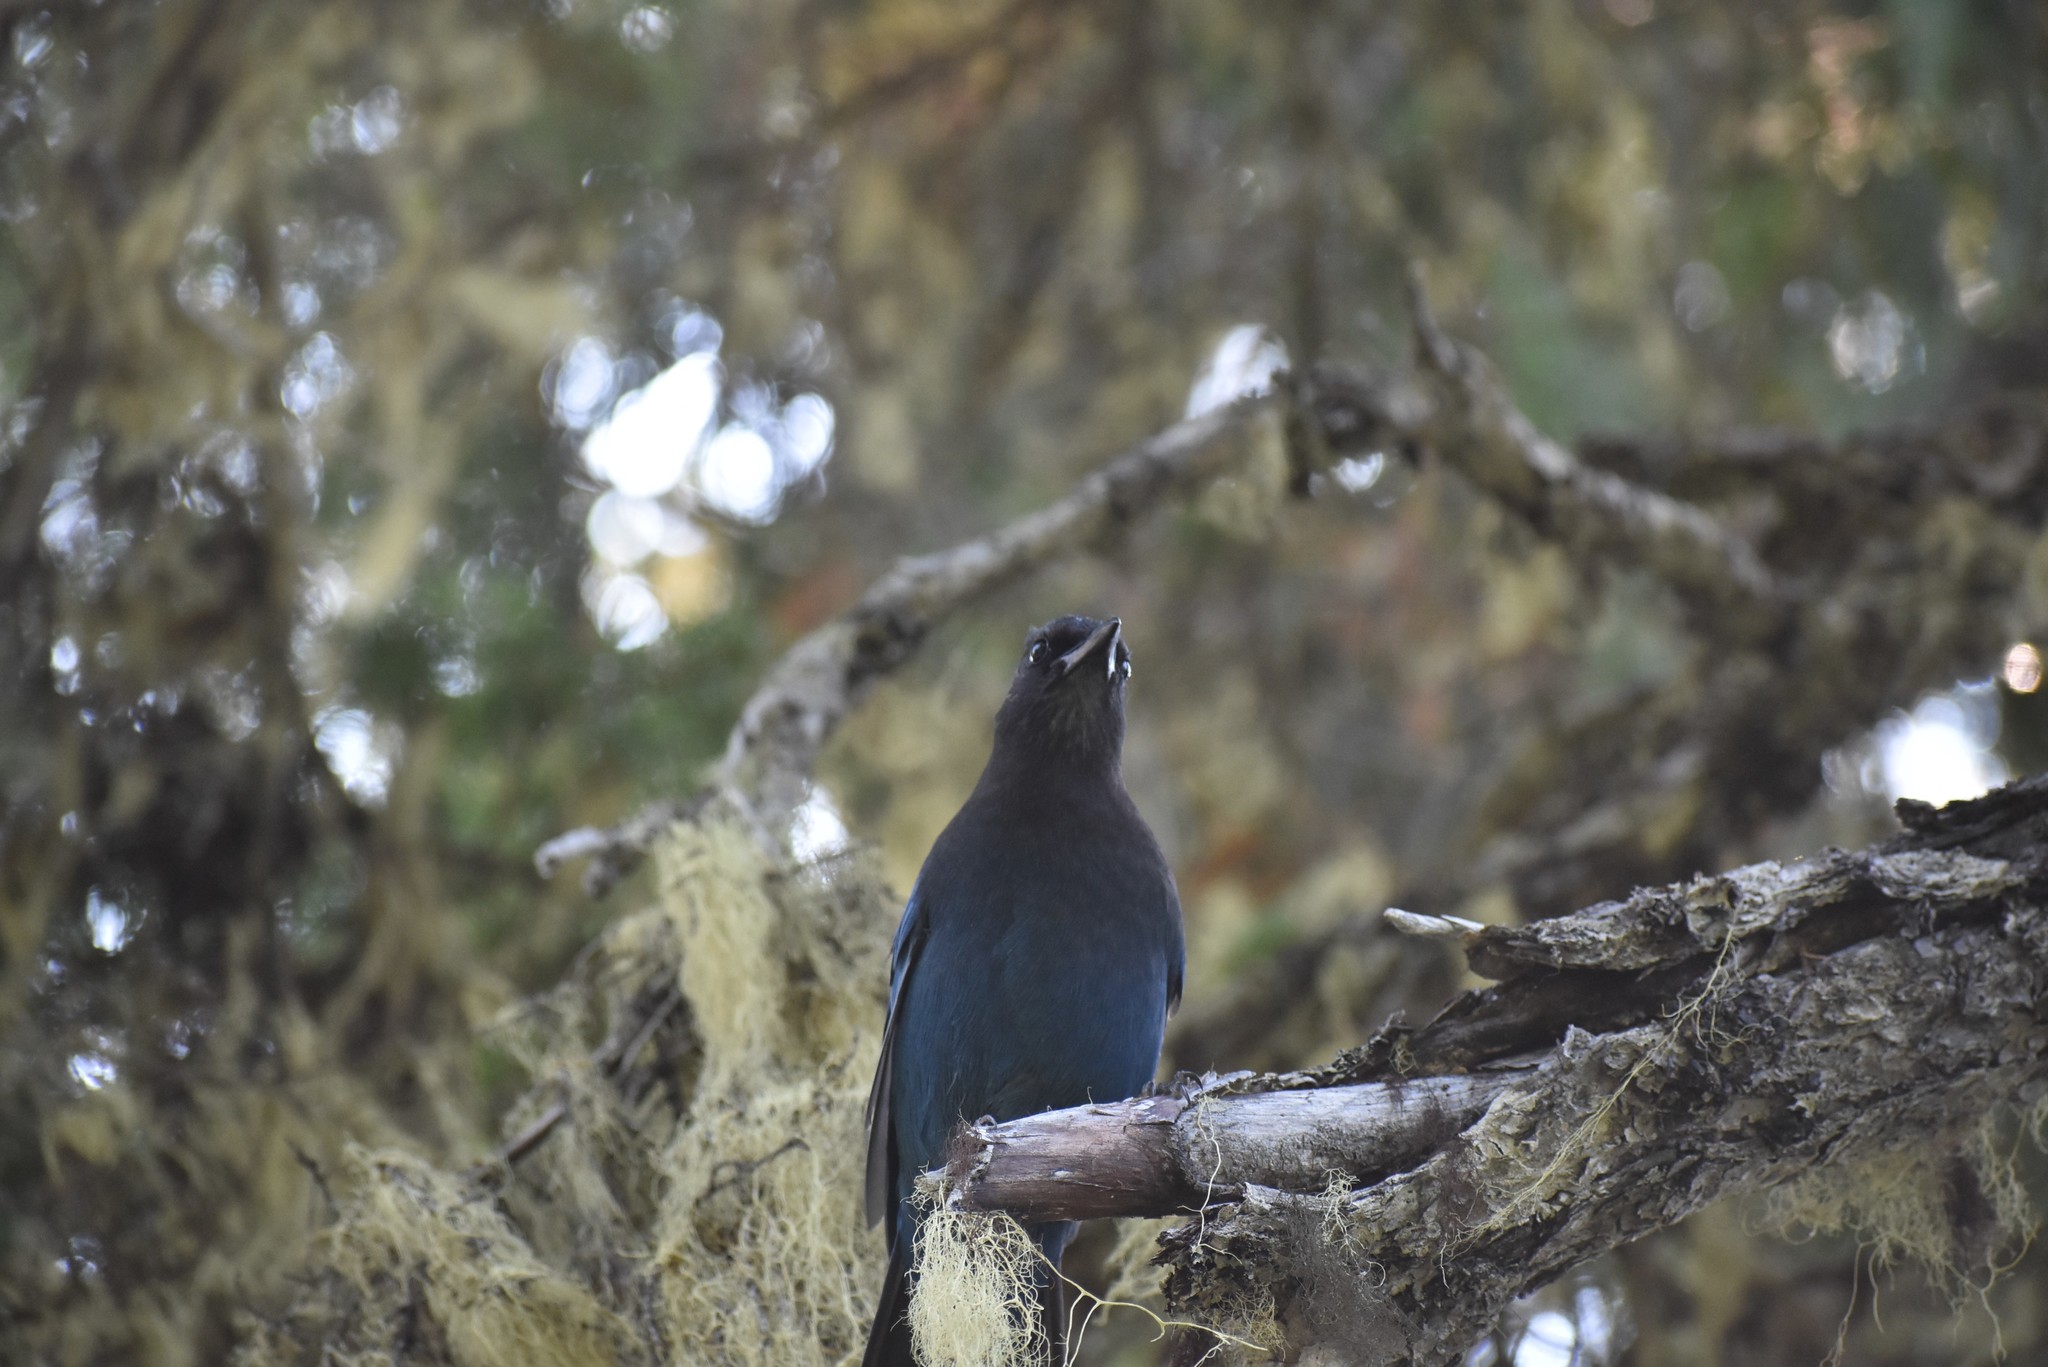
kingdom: Animalia
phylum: Chordata
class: Aves
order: Passeriformes
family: Corvidae
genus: Cyanocitta
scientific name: Cyanocitta stelleri
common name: Steller's jay
